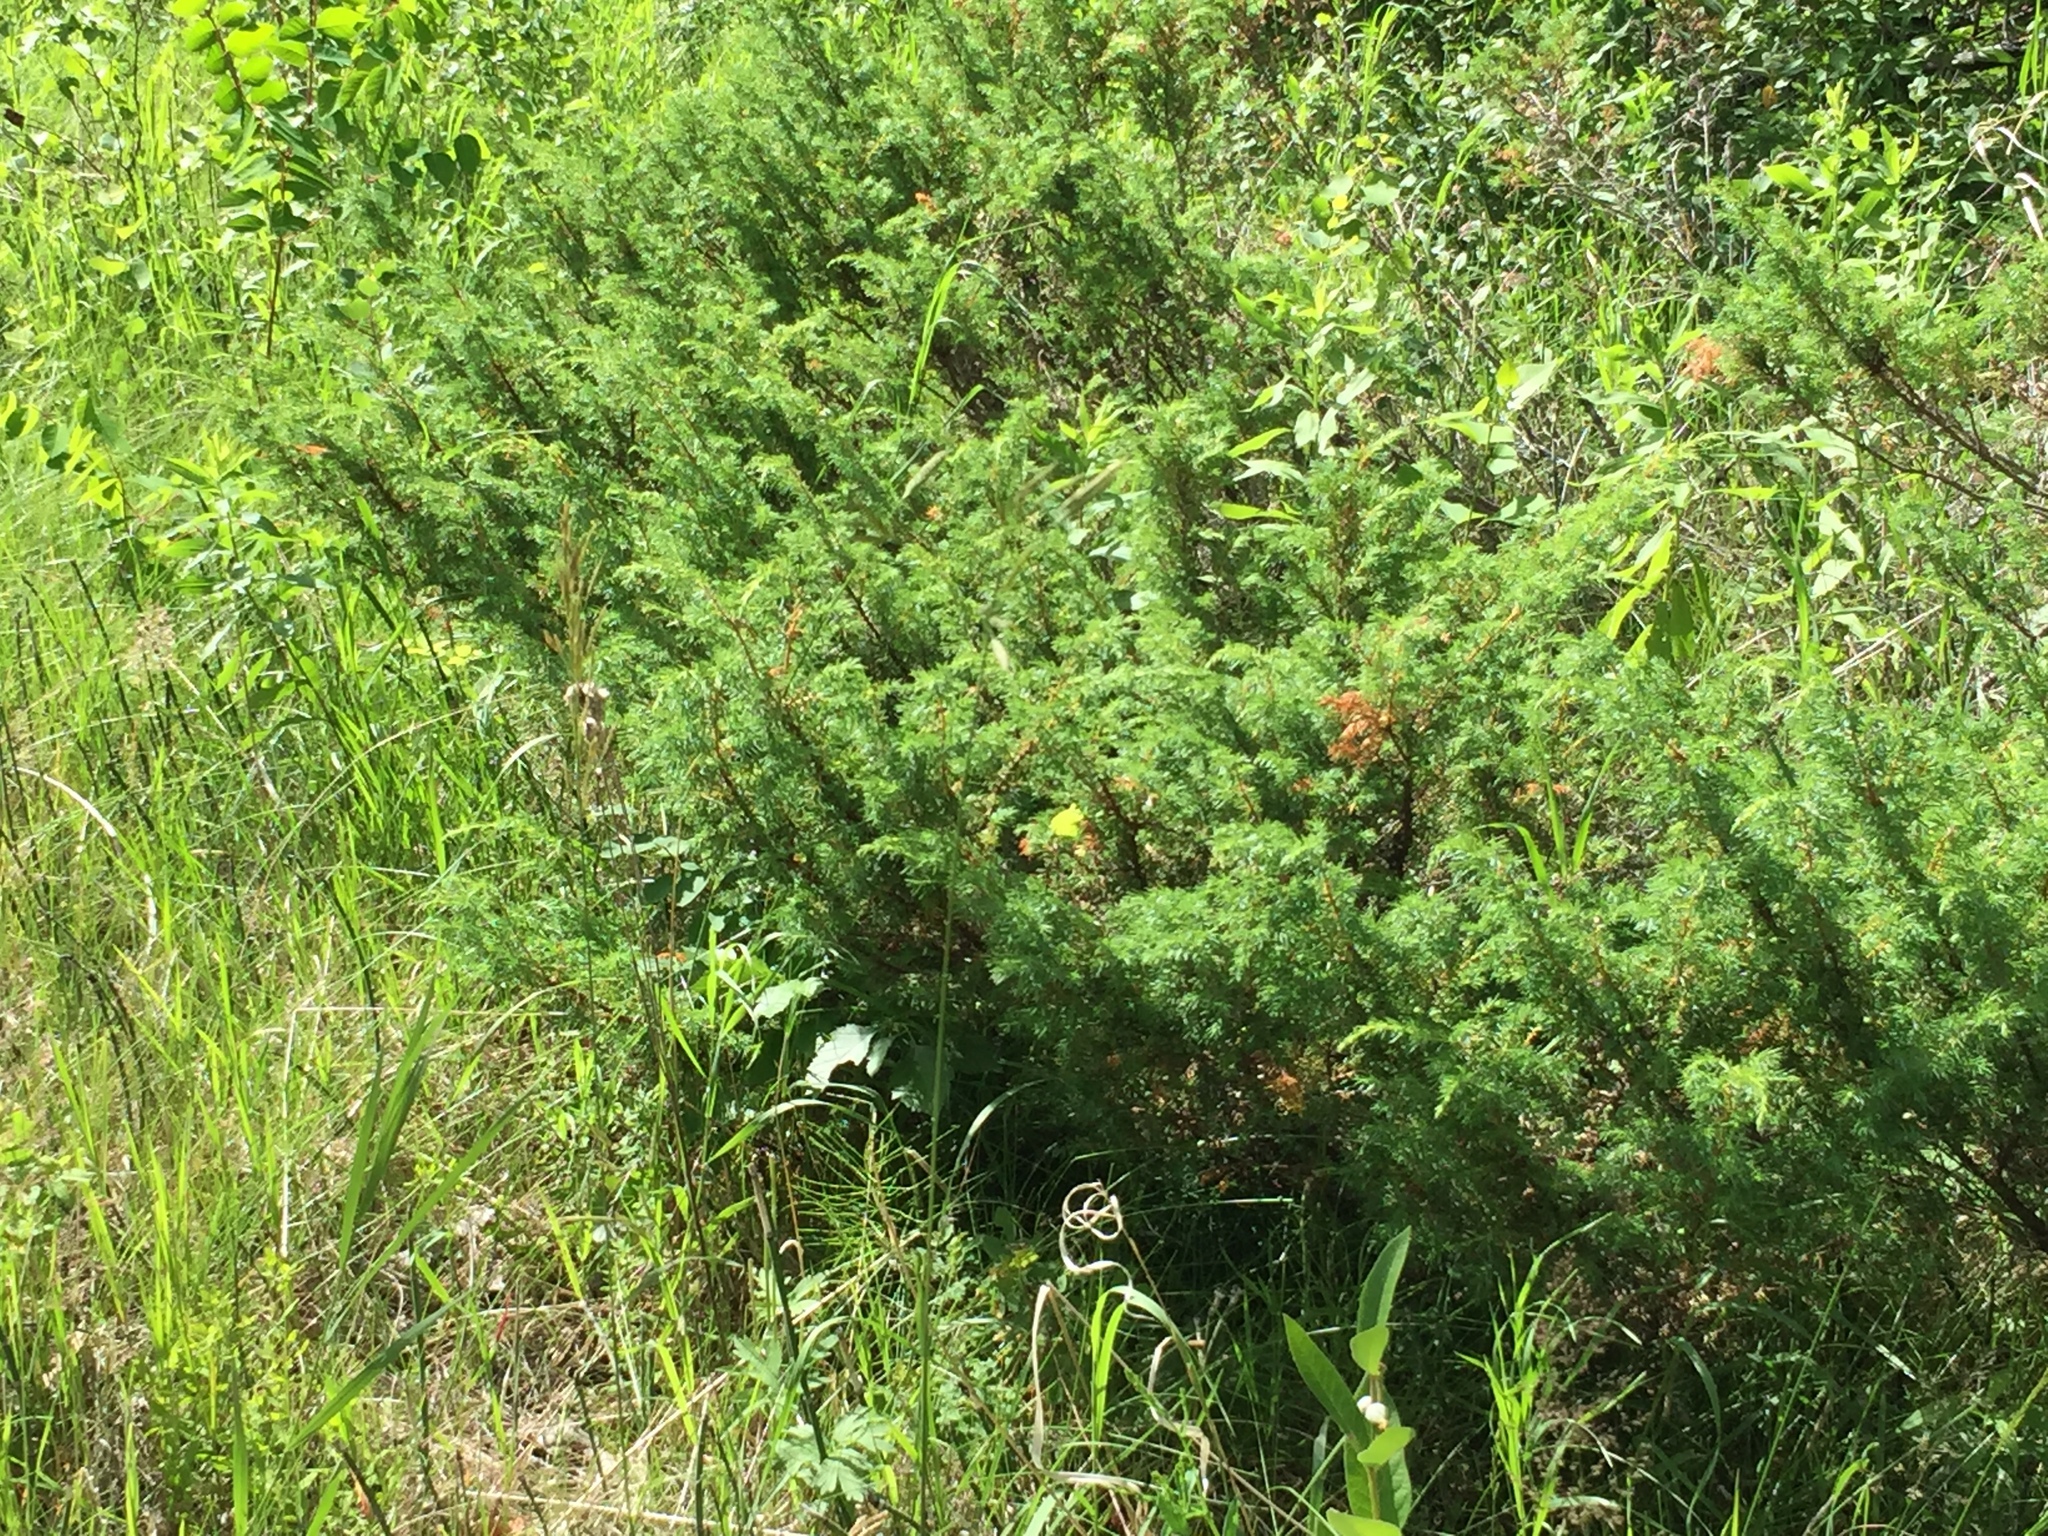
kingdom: Plantae
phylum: Tracheophyta
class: Pinopsida
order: Pinales
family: Cupressaceae
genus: Juniperus
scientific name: Juniperus communis
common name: Common juniper
